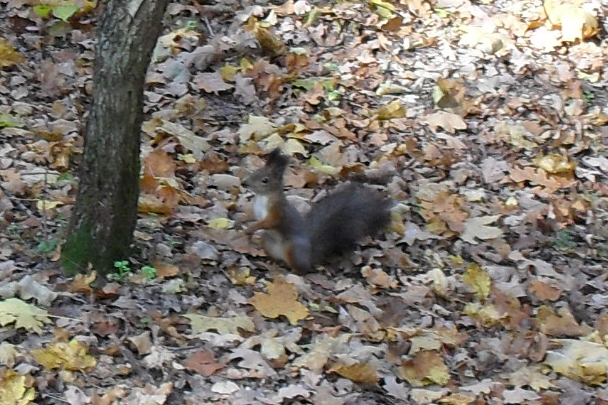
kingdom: Animalia
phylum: Chordata
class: Mammalia
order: Rodentia
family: Sciuridae
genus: Sciurus
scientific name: Sciurus vulgaris
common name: Eurasian red squirrel
